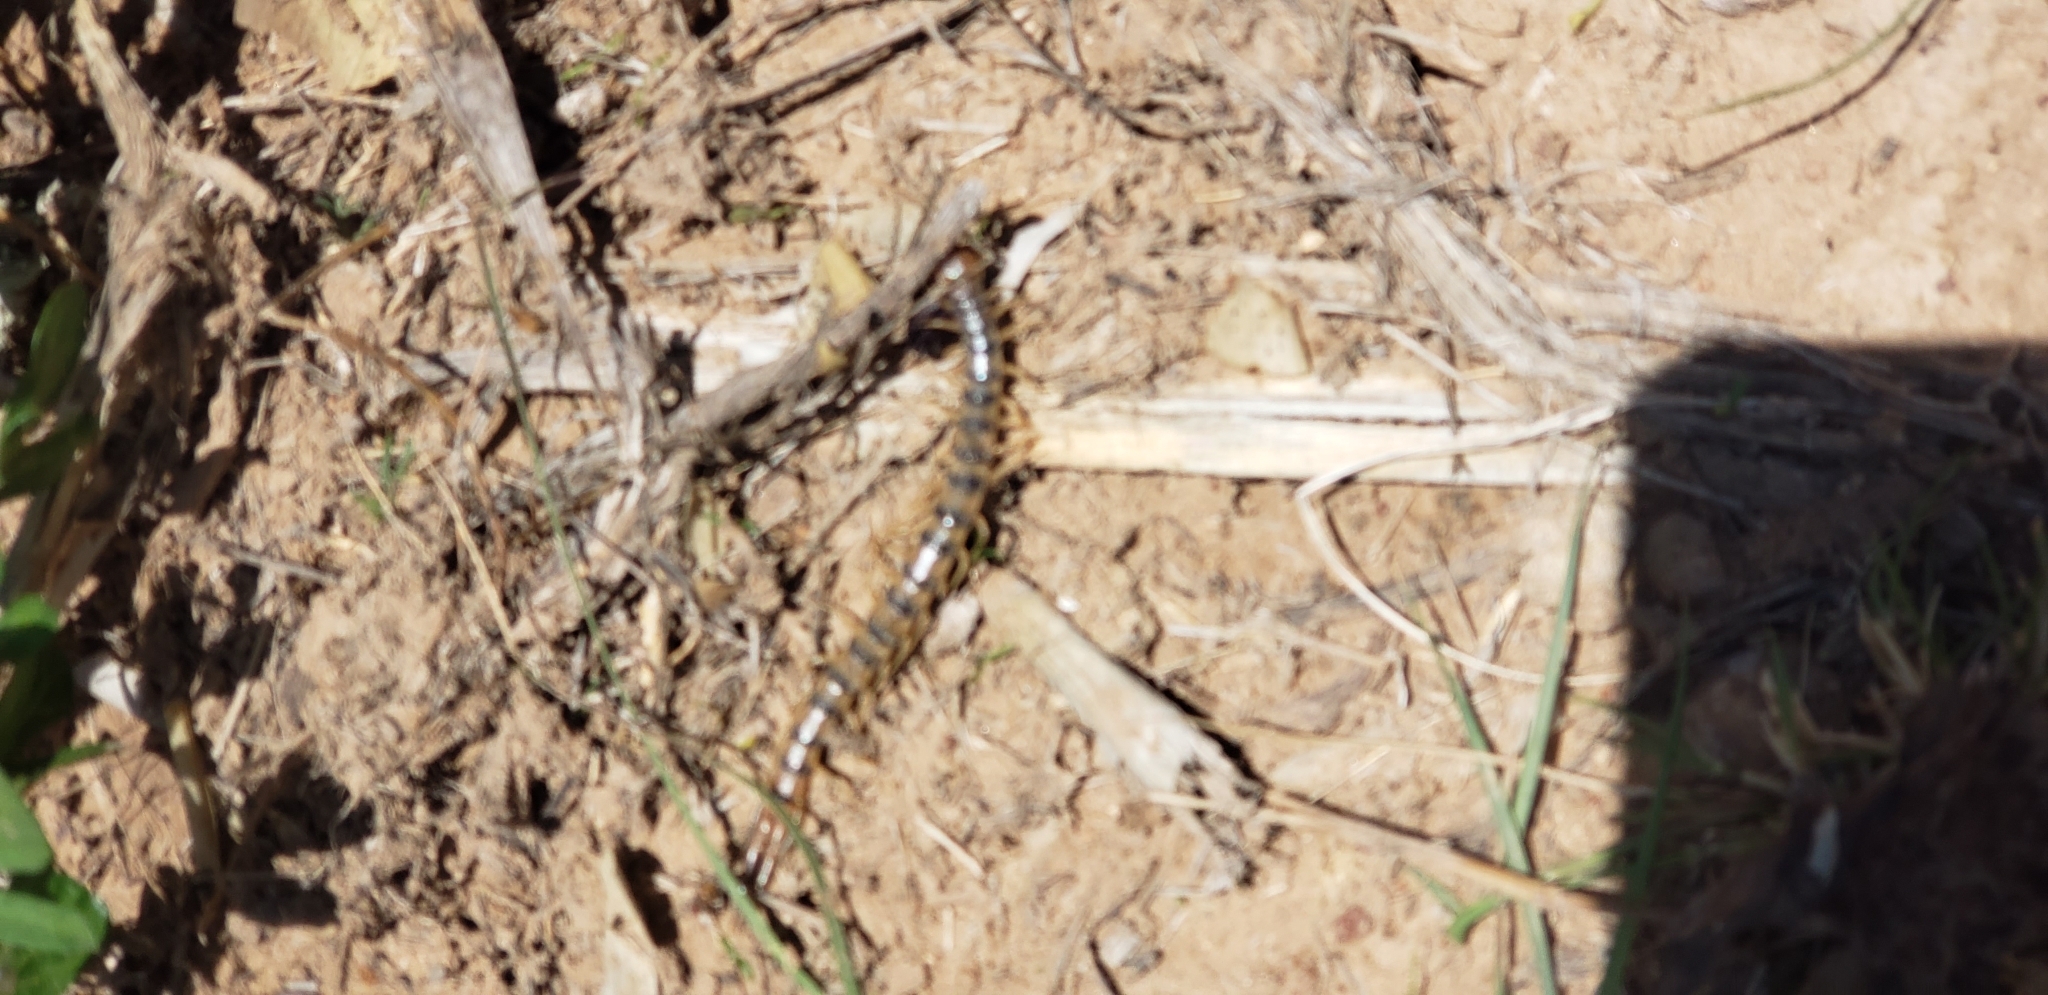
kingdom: Animalia
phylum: Arthropoda
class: Chilopoda
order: Scolopendromorpha
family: Scolopendridae
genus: Scolopendra
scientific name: Scolopendra polymorpha
